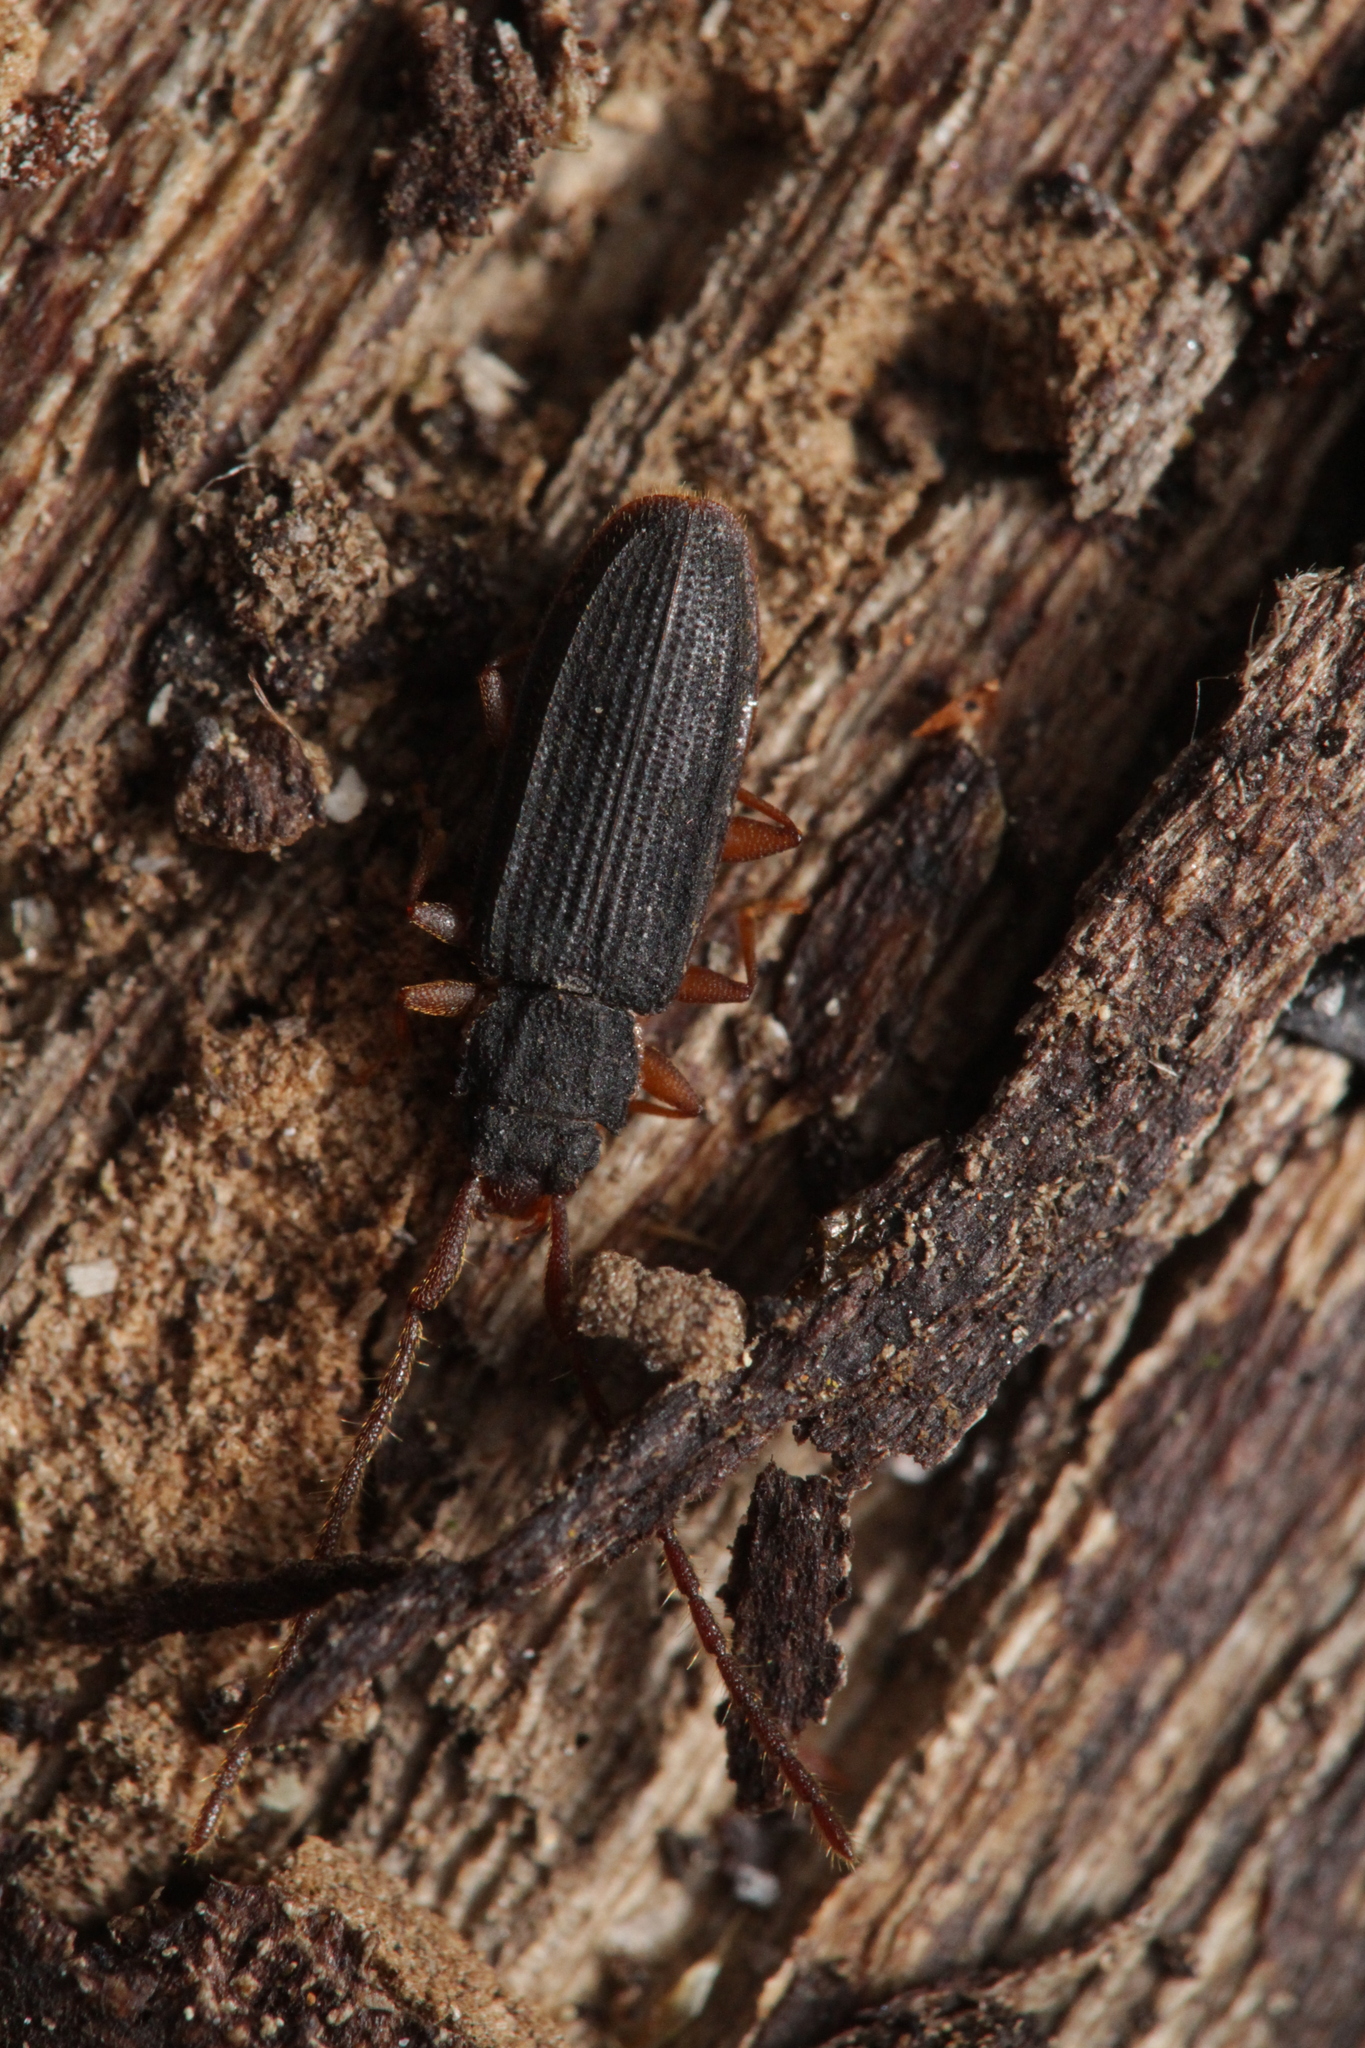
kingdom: Animalia
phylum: Arthropoda
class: Insecta
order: Coleoptera
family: Silvanidae
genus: Uleiota
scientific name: Uleiota planatus
